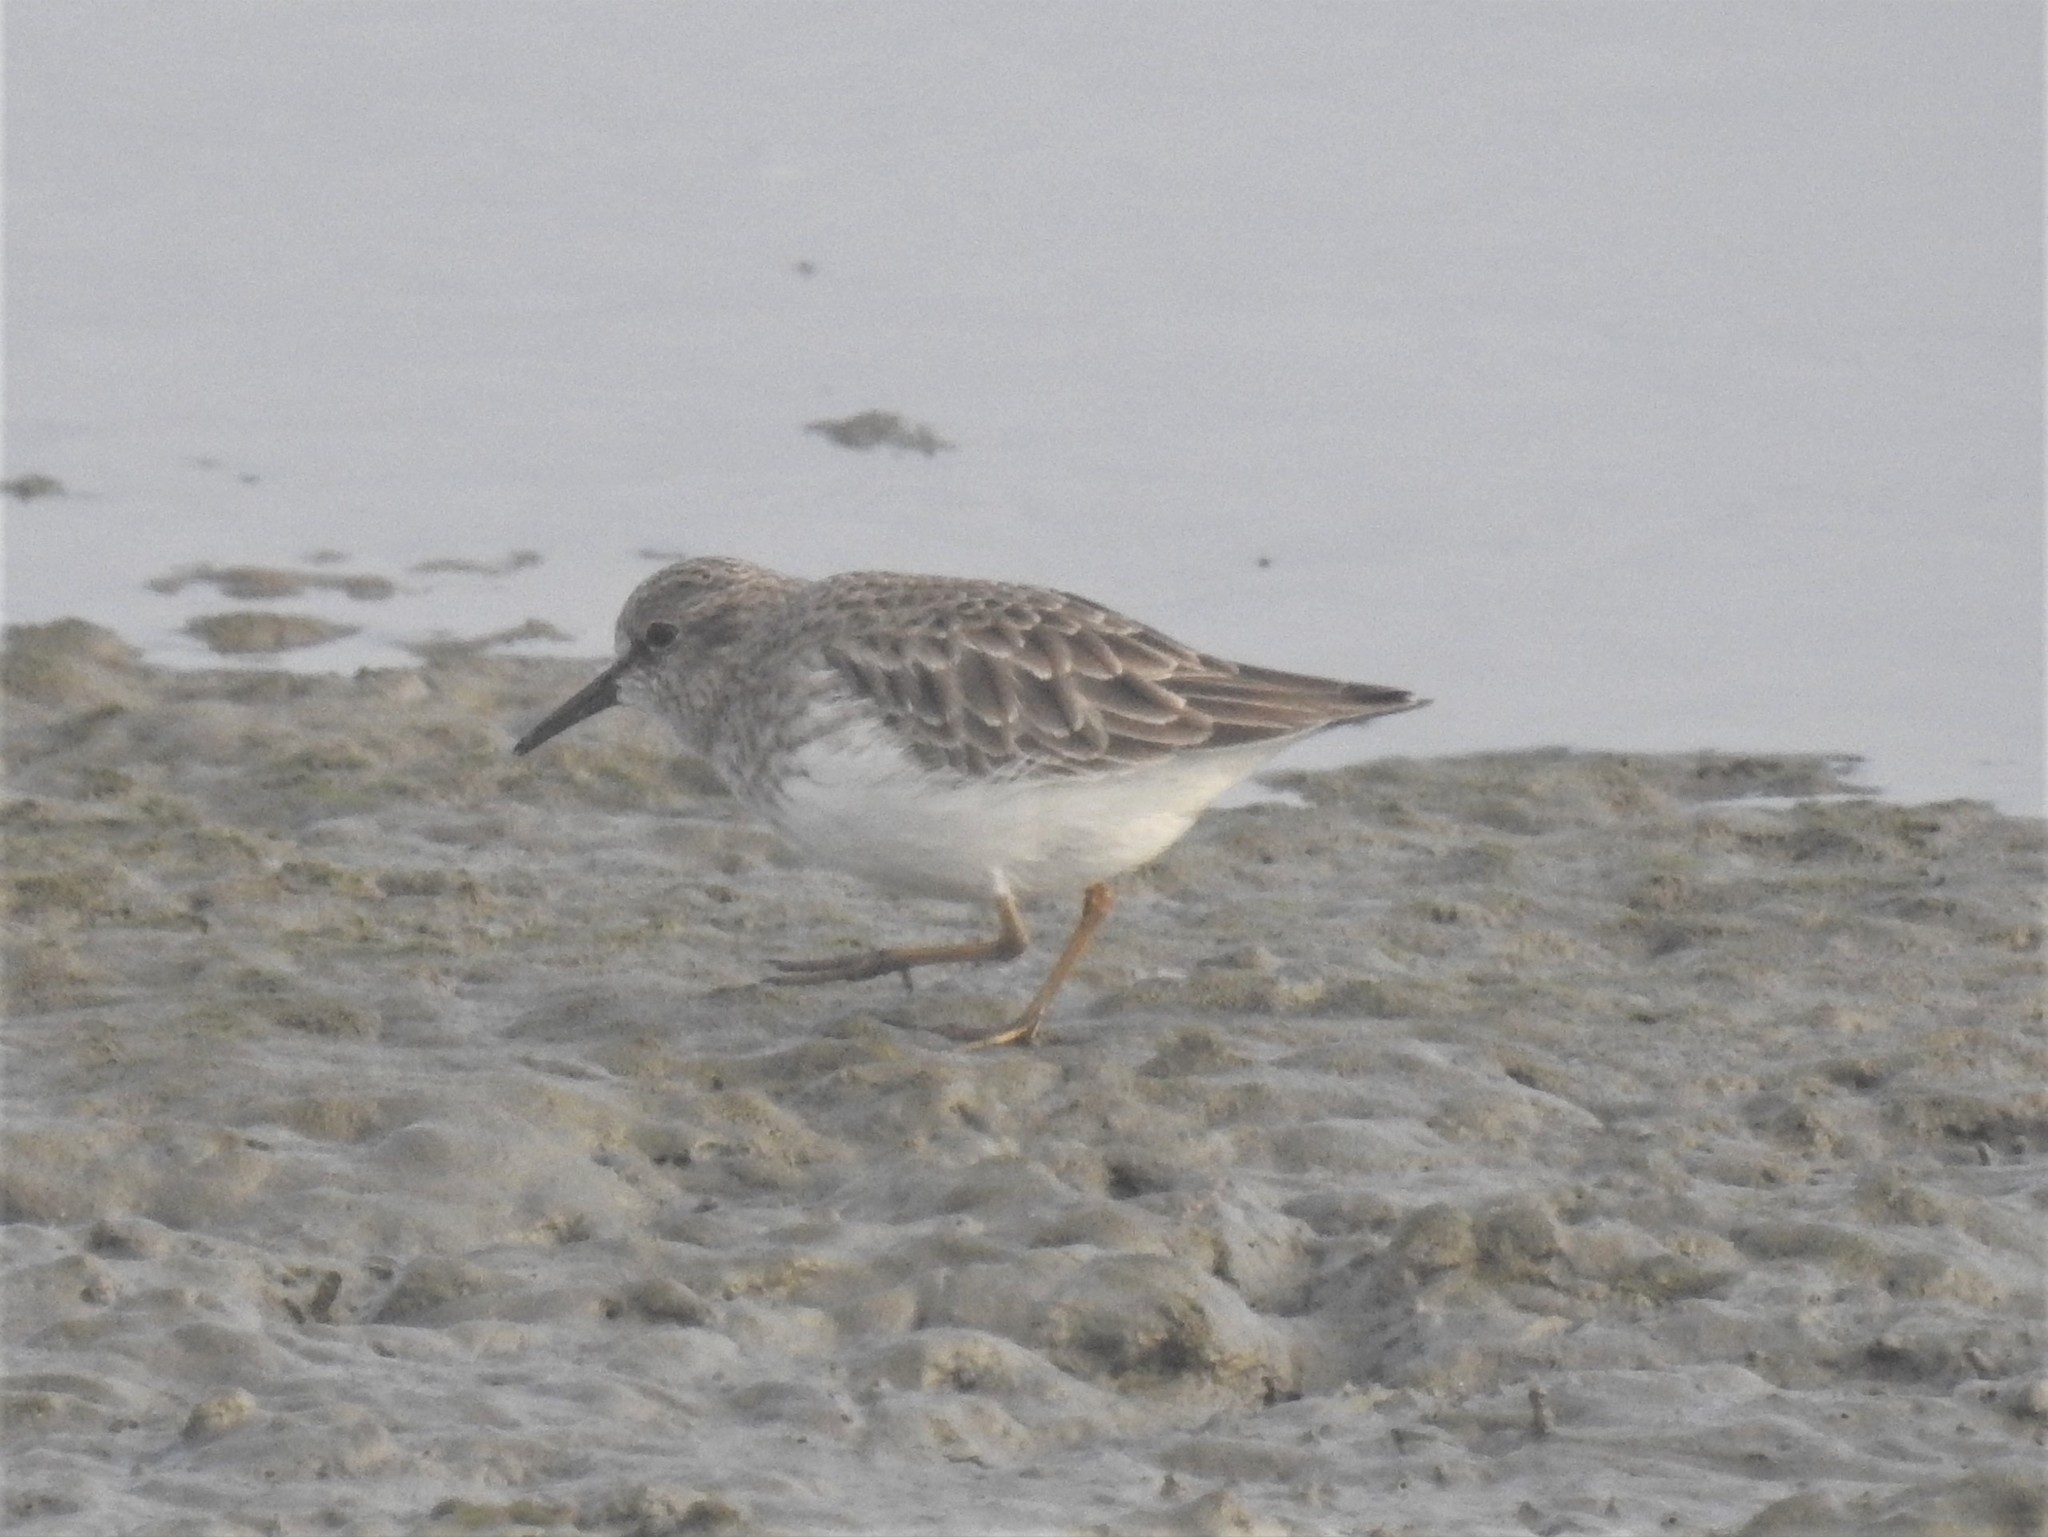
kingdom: Animalia
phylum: Chordata
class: Aves
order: Charadriiformes
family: Scolopacidae
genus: Calidris
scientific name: Calidris minutilla
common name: Least sandpiper
